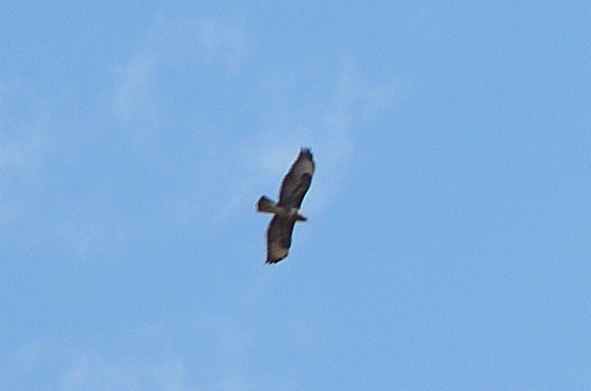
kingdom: Animalia
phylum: Chordata
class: Aves
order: Accipitriformes
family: Accipitridae
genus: Buteo
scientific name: Buteo buteo
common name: Common buzzard
